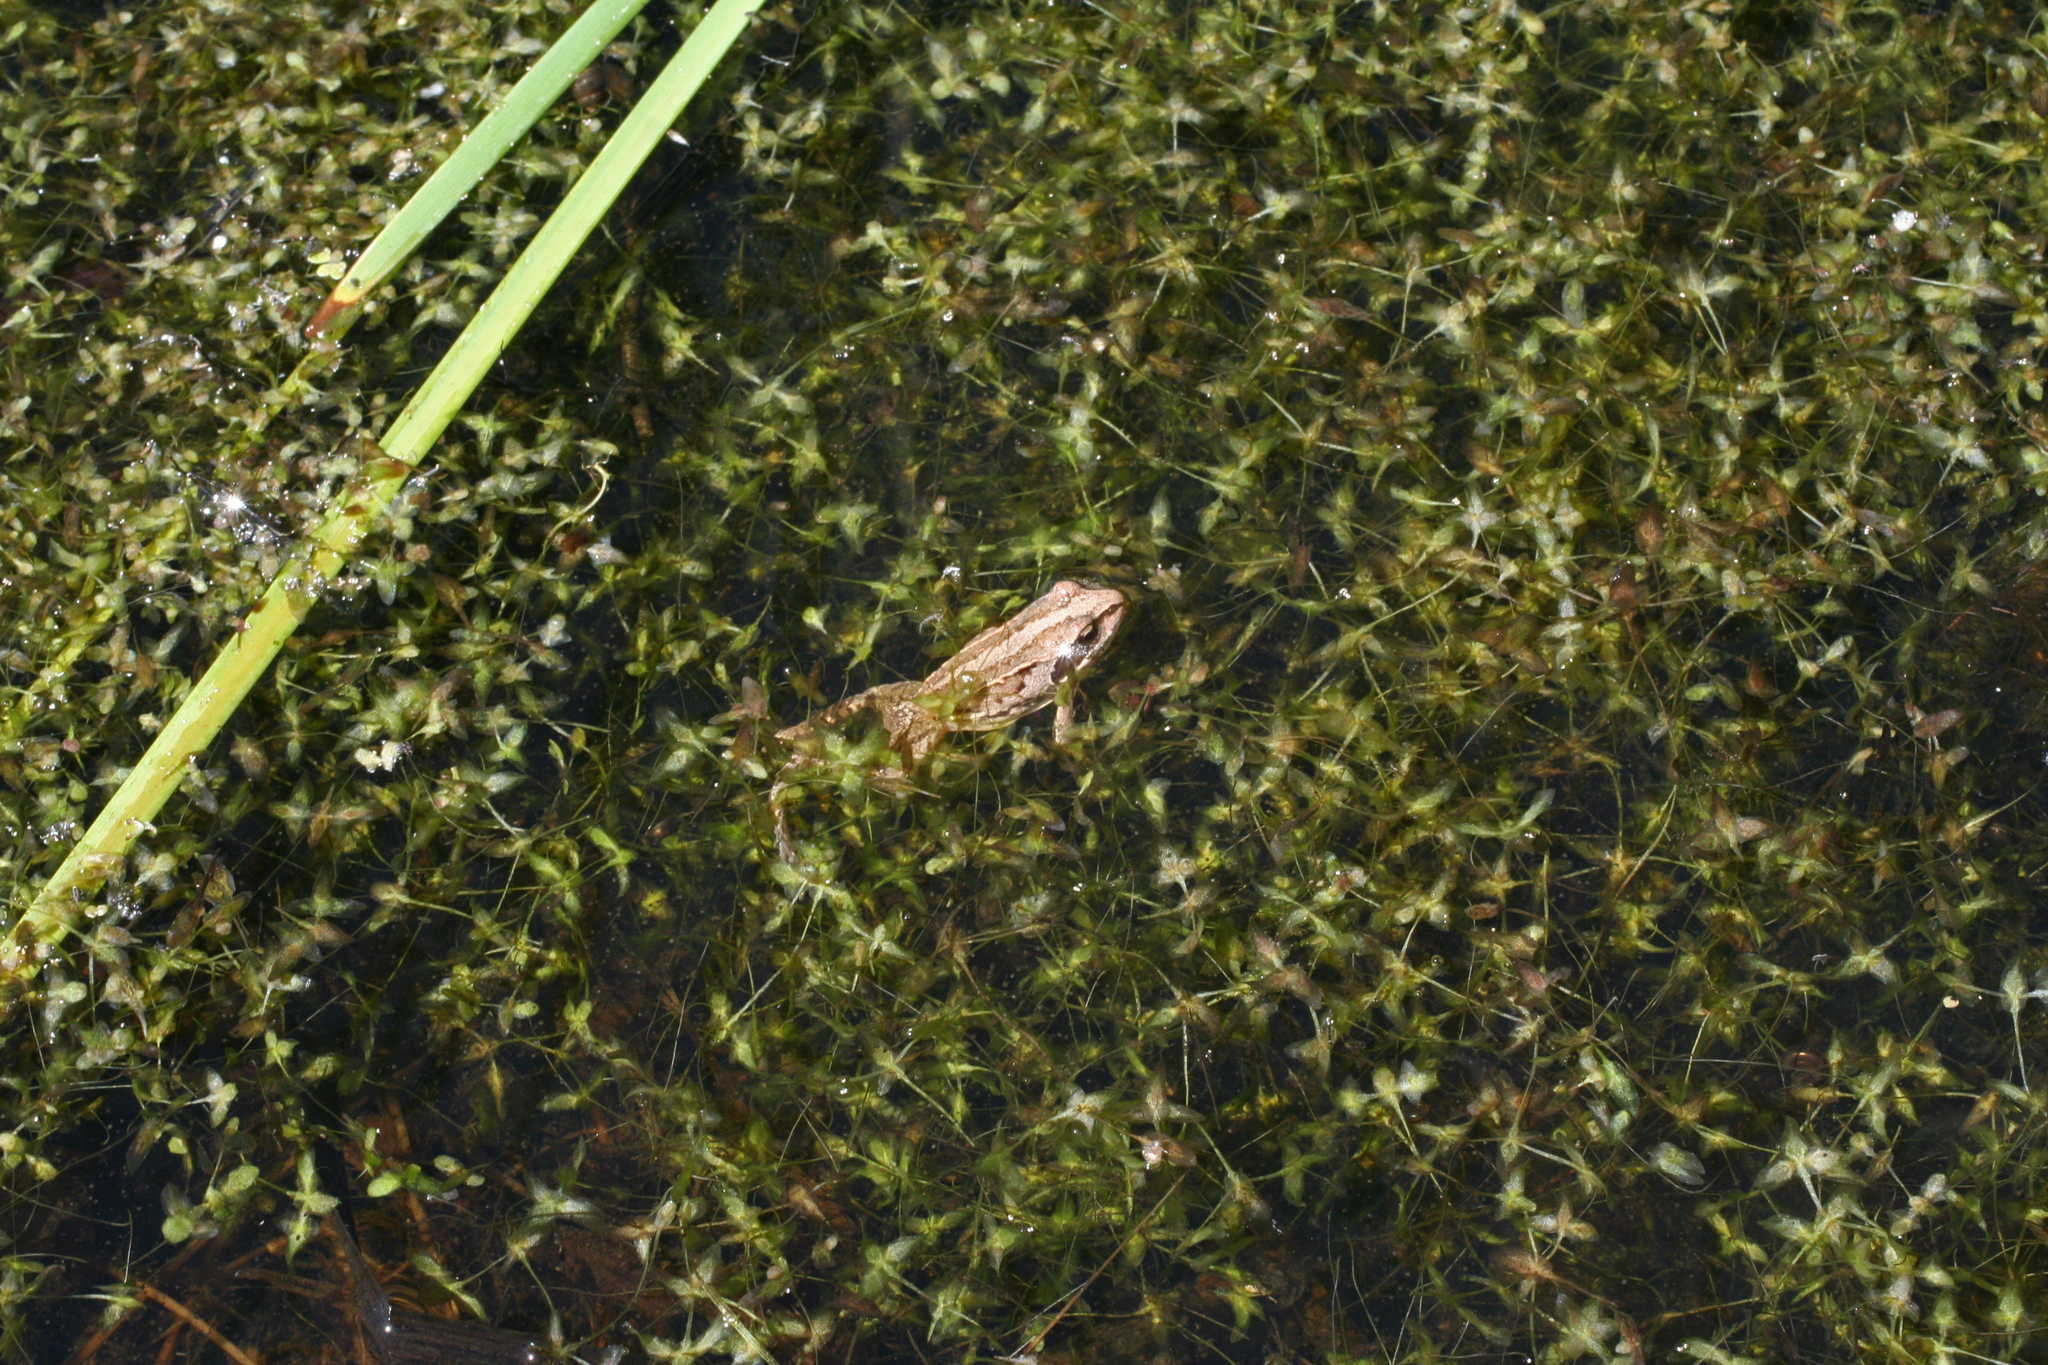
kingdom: Plantae
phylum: Tracheophyta
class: Liliopsida
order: Alismatales
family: Araceae
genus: Lemna
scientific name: Lemna trisulca
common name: Ivy-leaved duckweed
